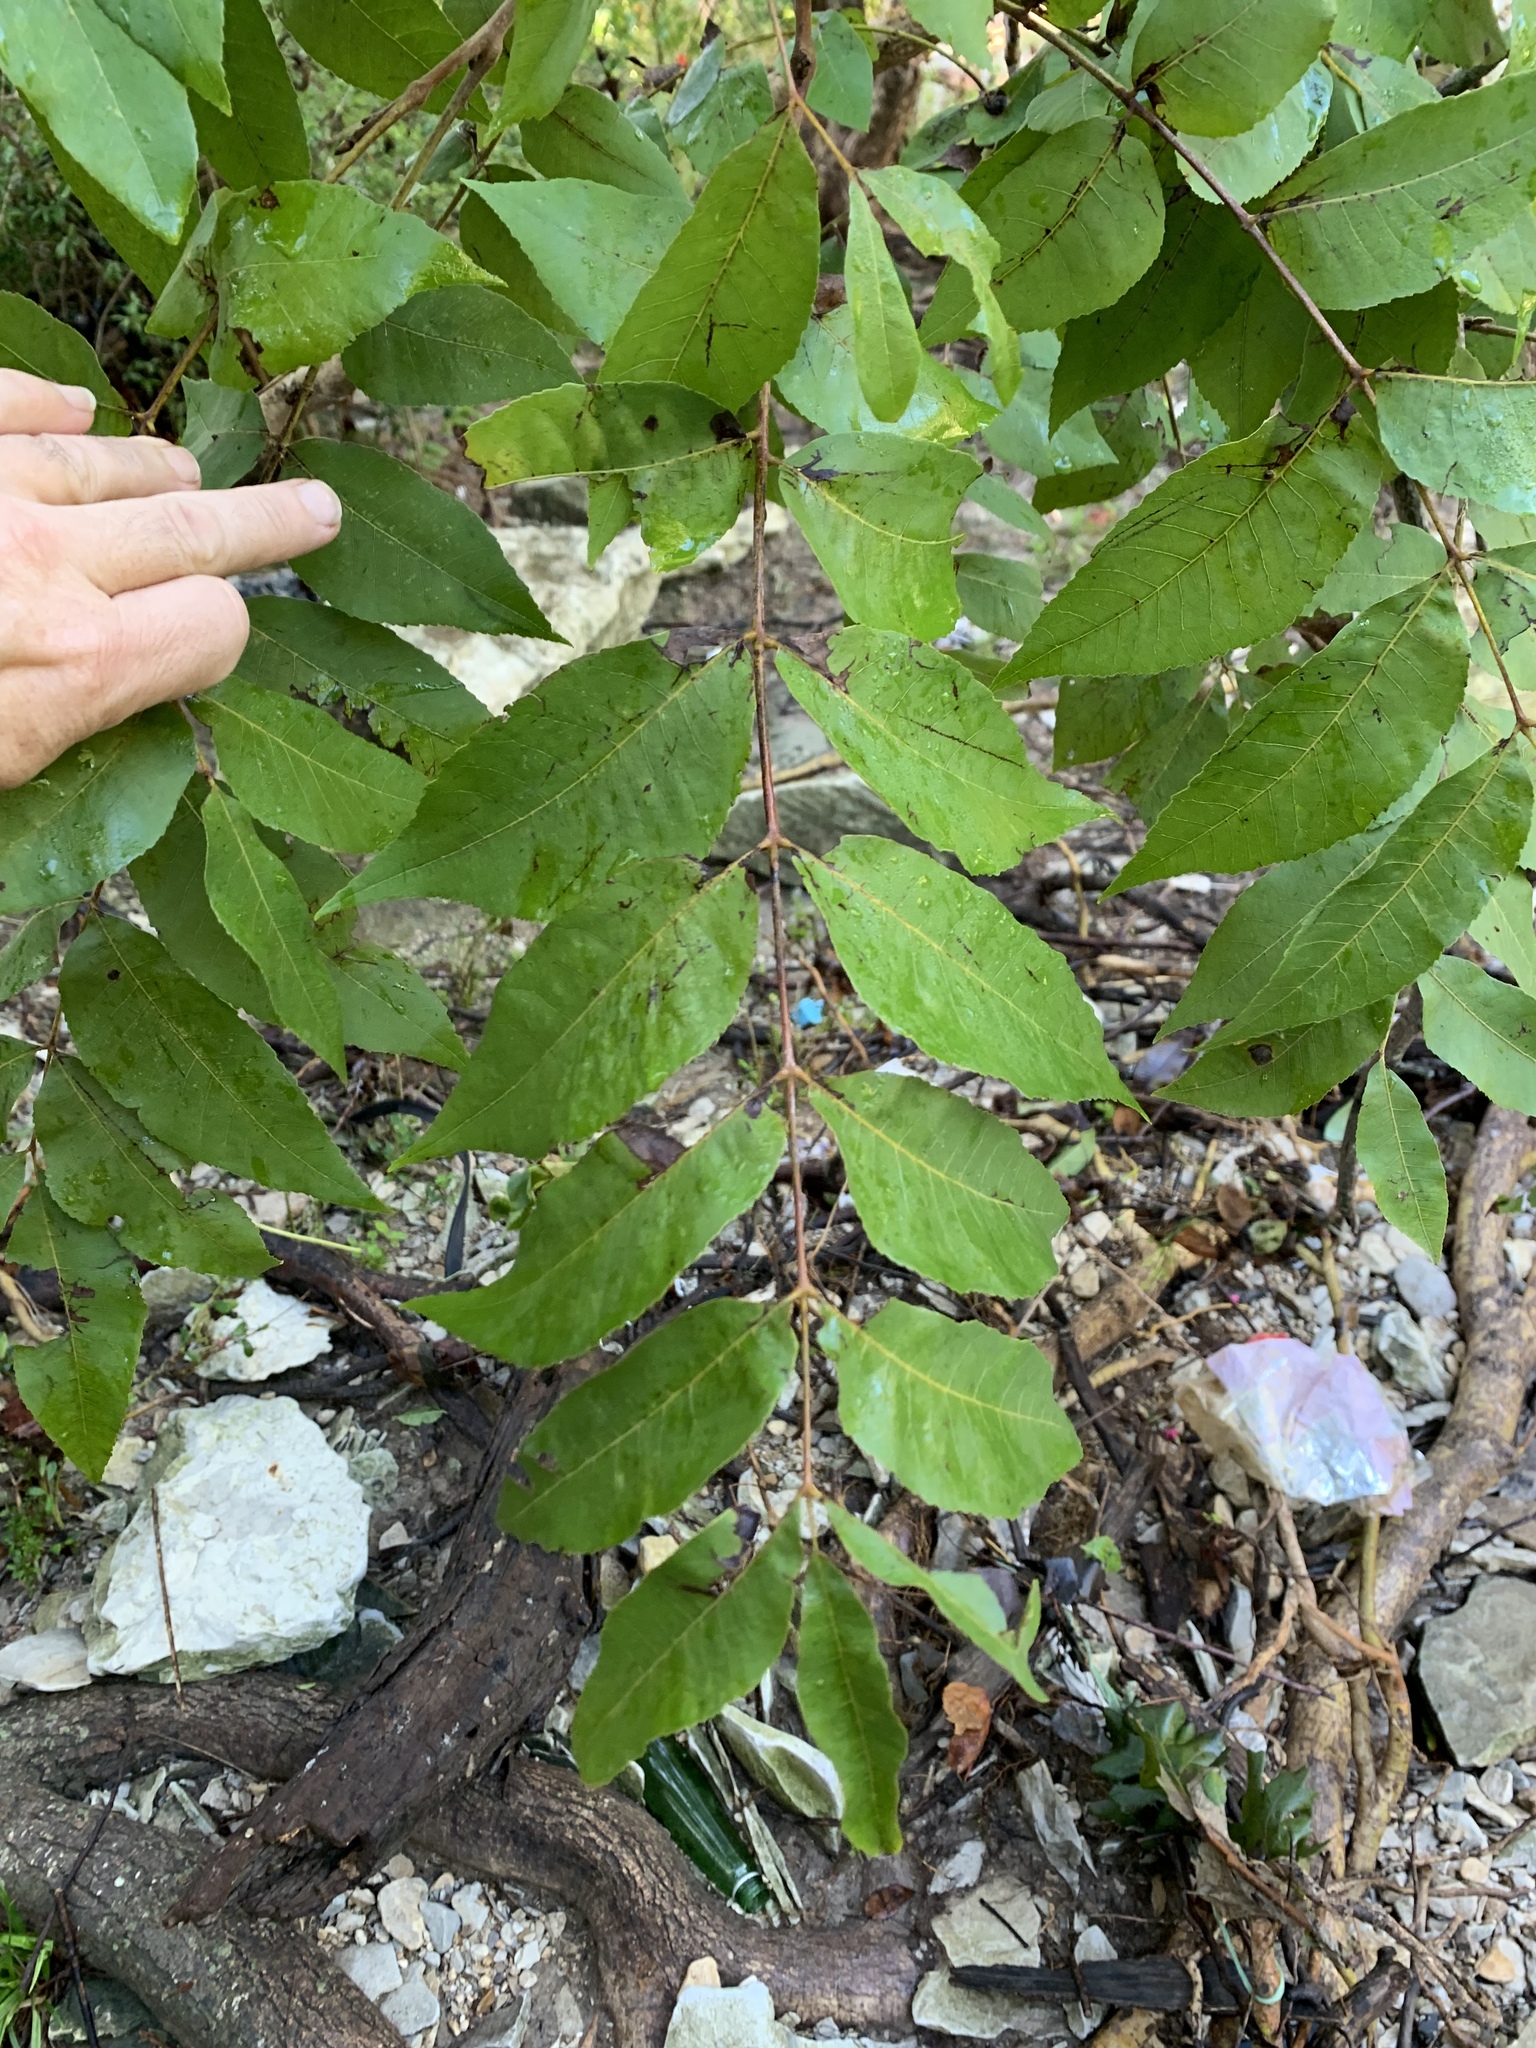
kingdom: Plantae
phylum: Tracheophyta
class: Magnoliopsida
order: Fagales
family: Juglandaceae
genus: Carya
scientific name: Carya illinoinensis
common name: Pecan
